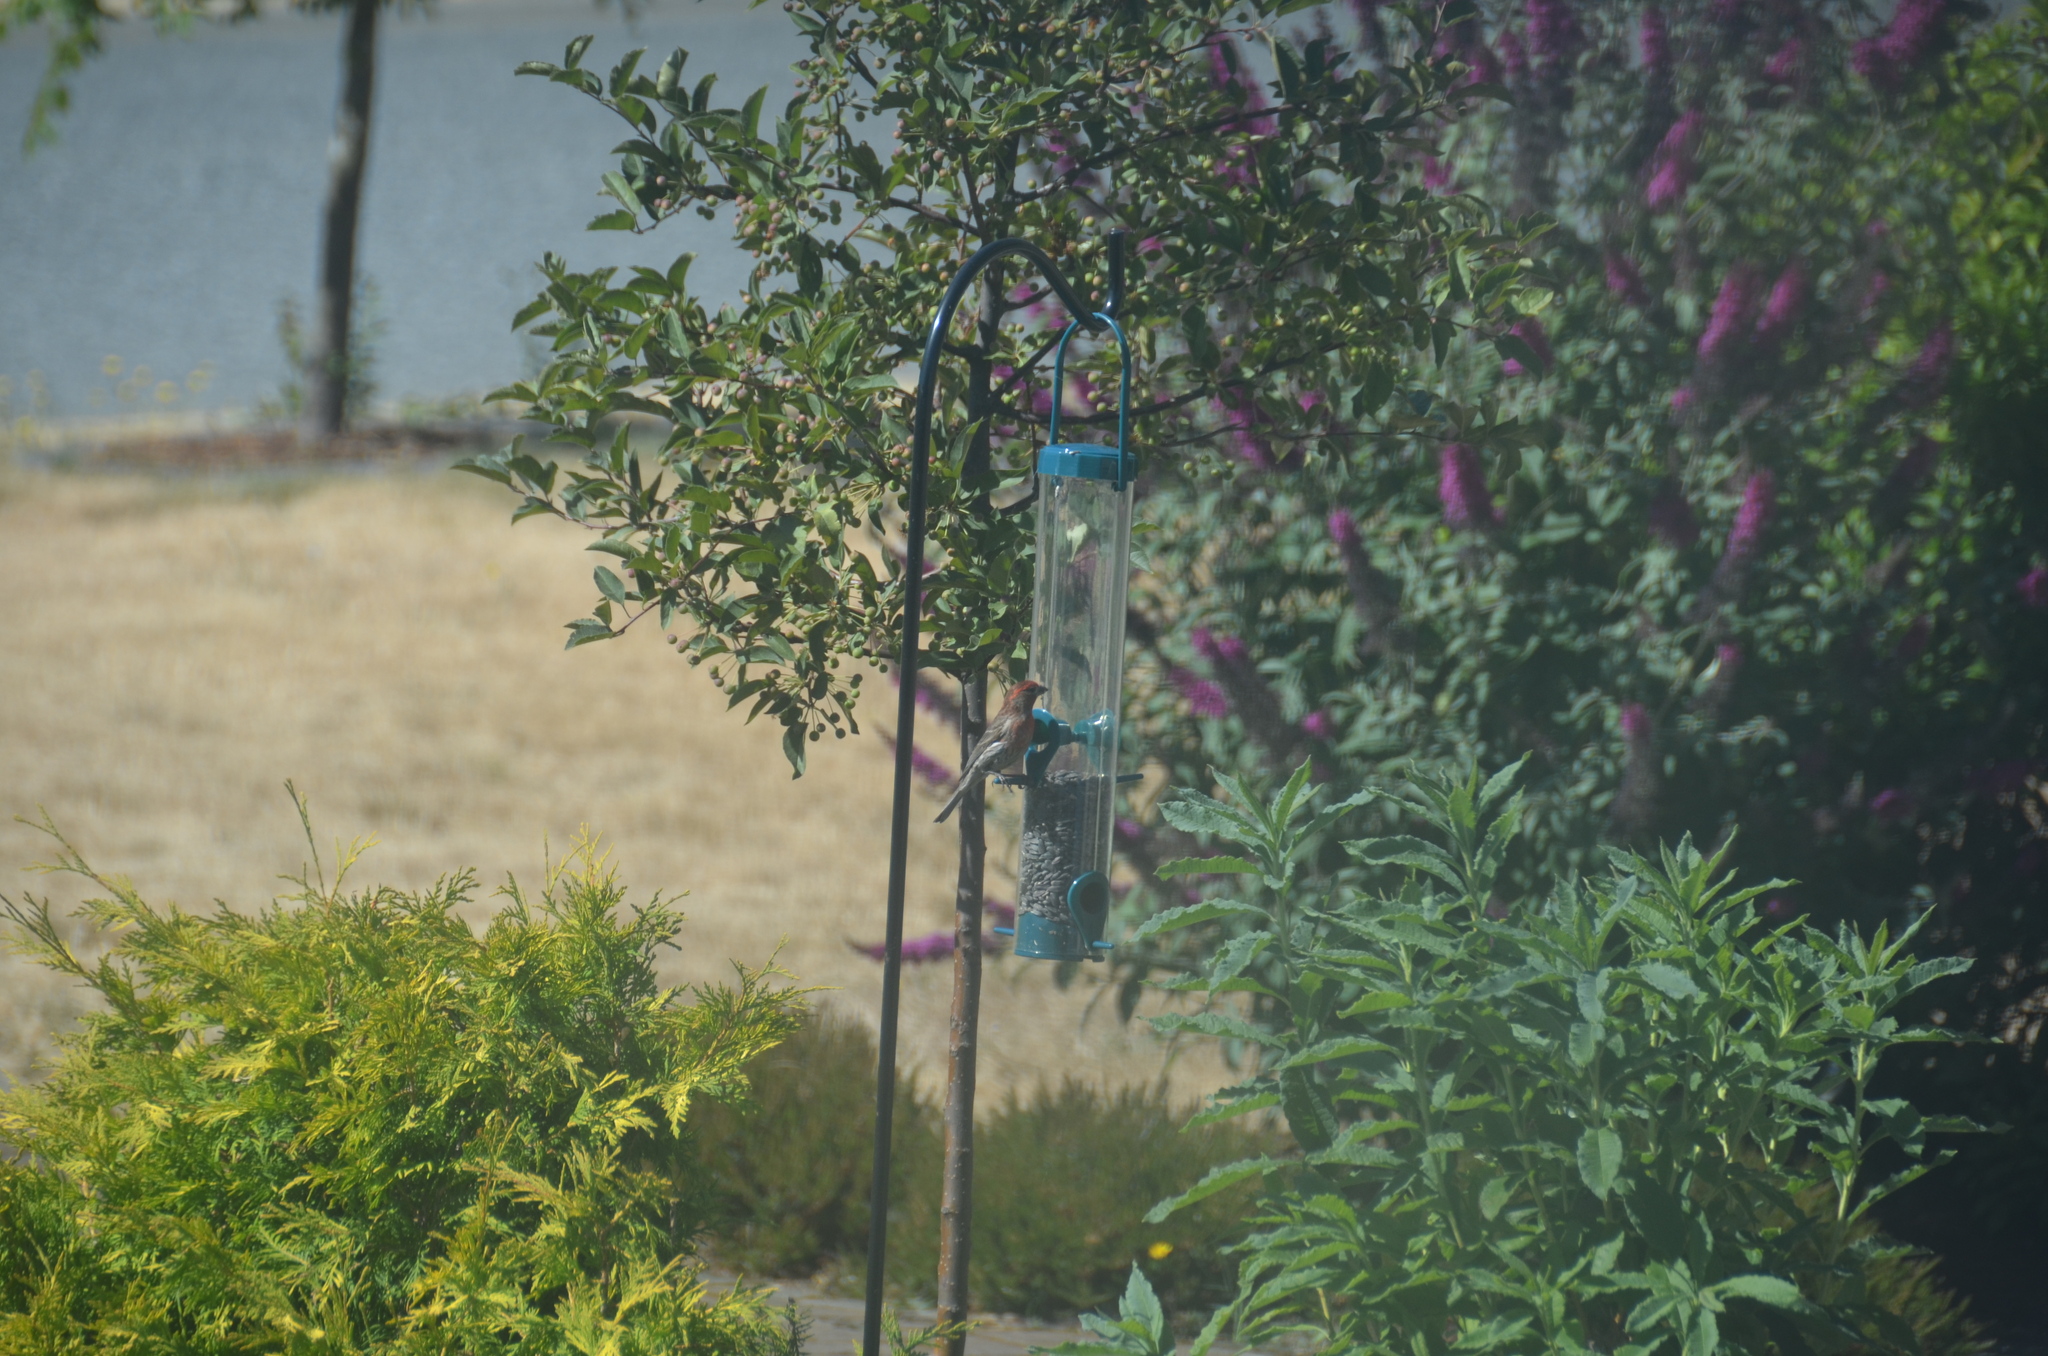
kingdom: Animalia
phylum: Chordata
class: Aves
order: Passeriformes
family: Fringillidae
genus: Haemorhous
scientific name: Haemorhous mexicanus
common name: House finch
